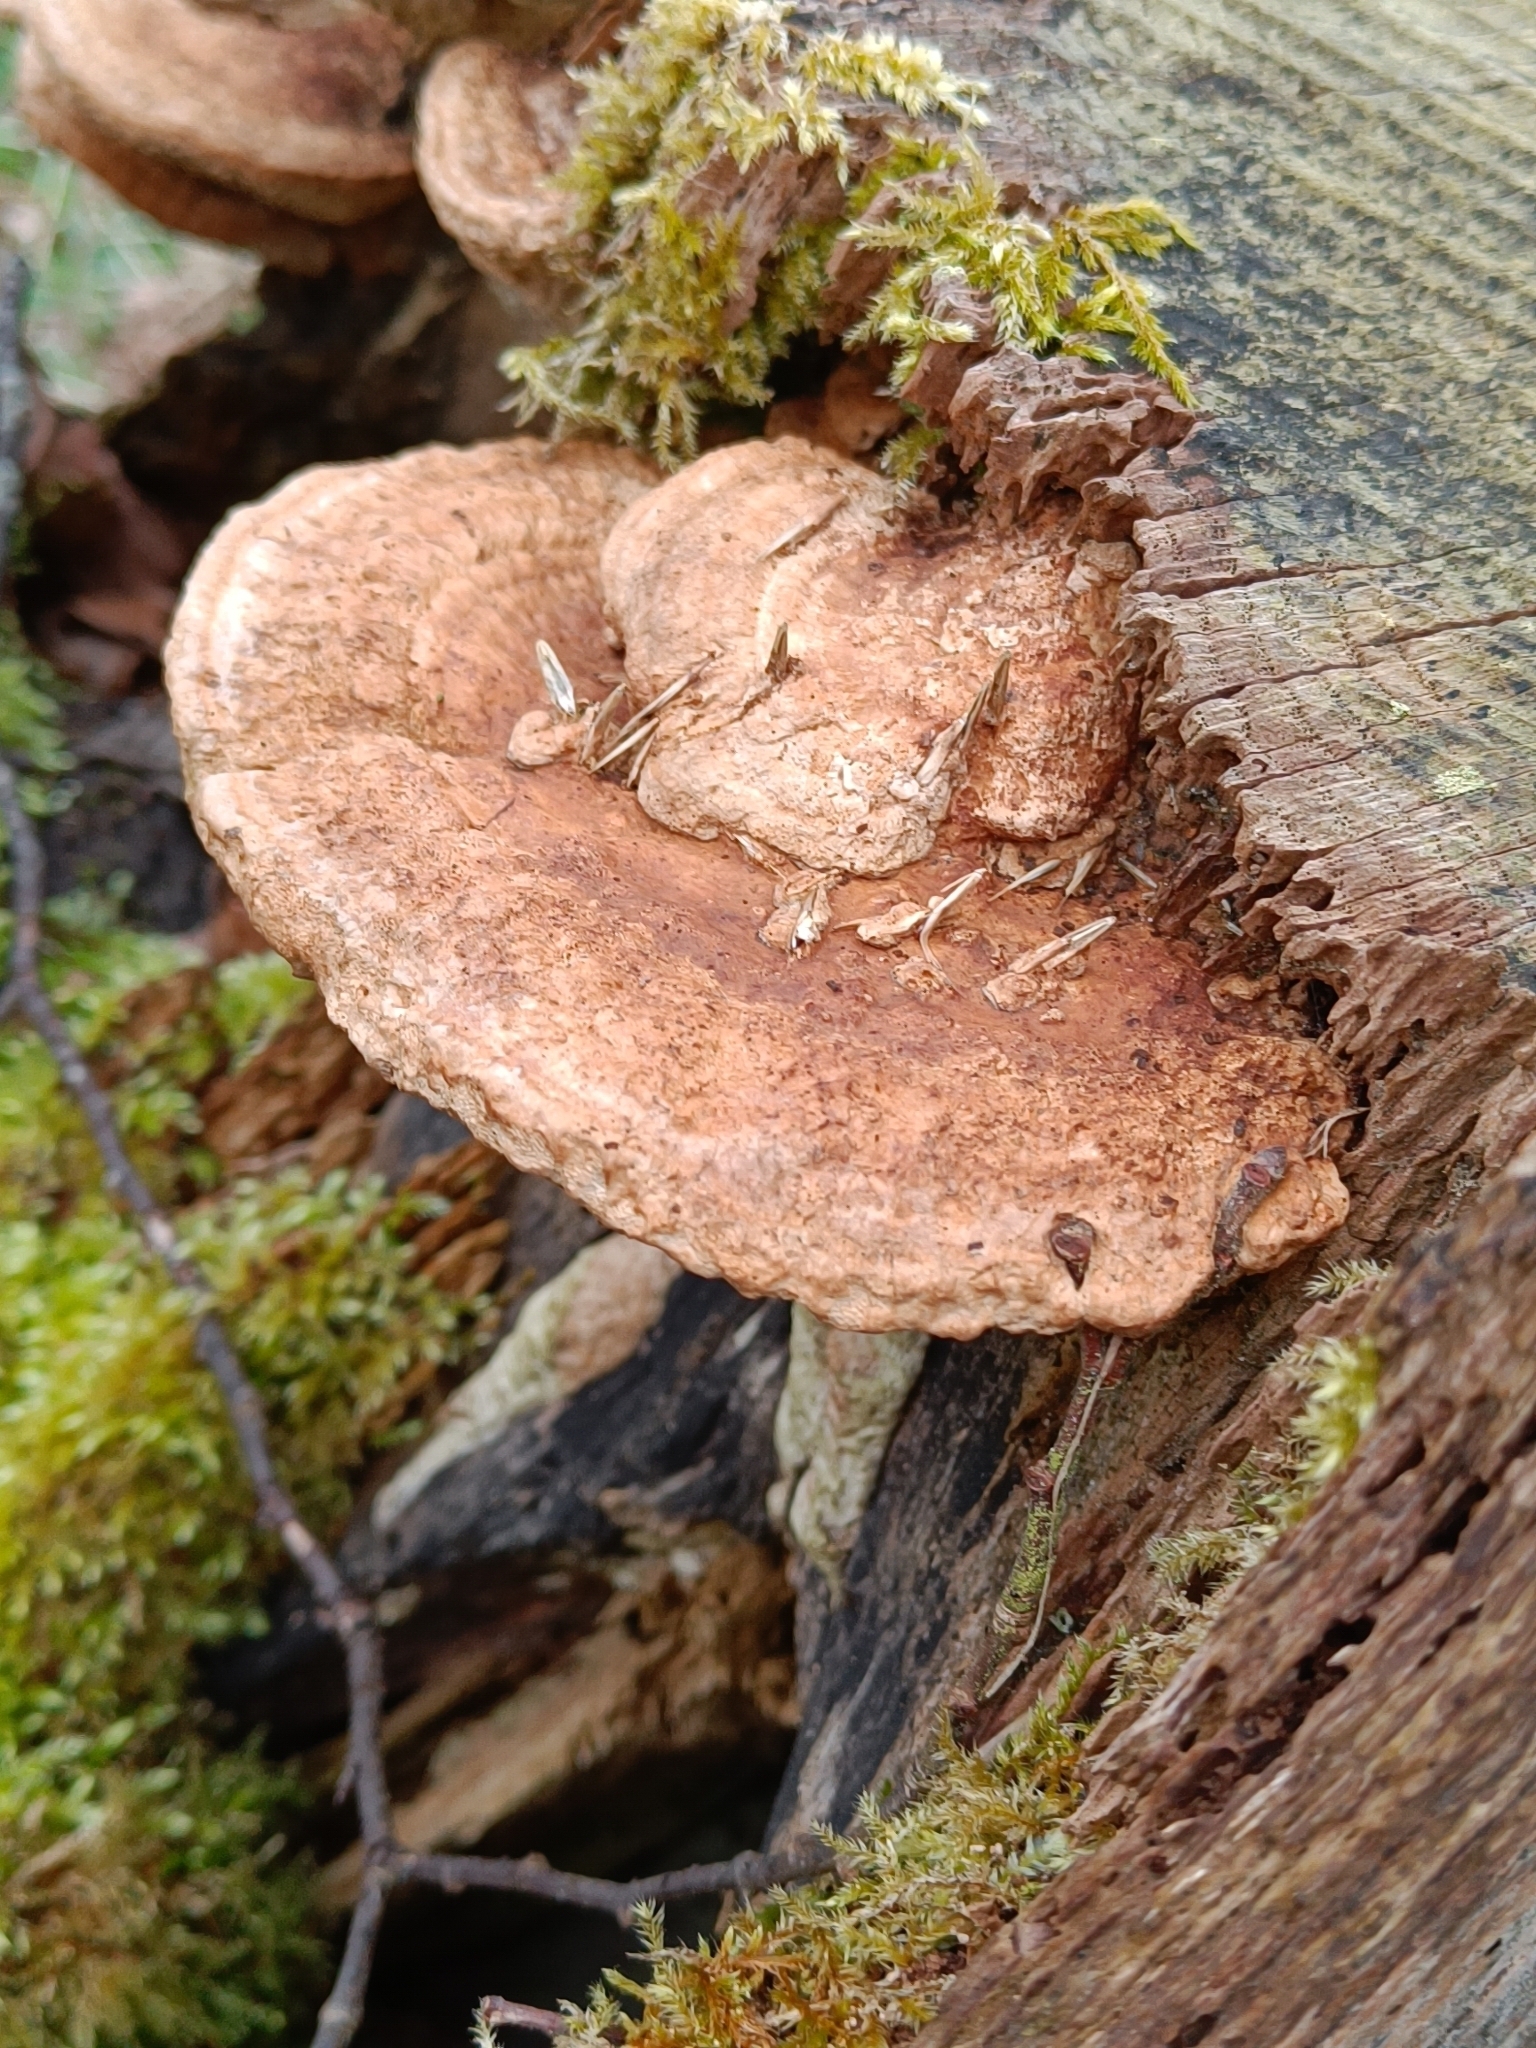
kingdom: Fungi
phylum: Basidiomycota
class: Agaricomycetes
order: Polyporales
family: Fomitopsidaceae
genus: Fomitopsis
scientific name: Fomitopsis
